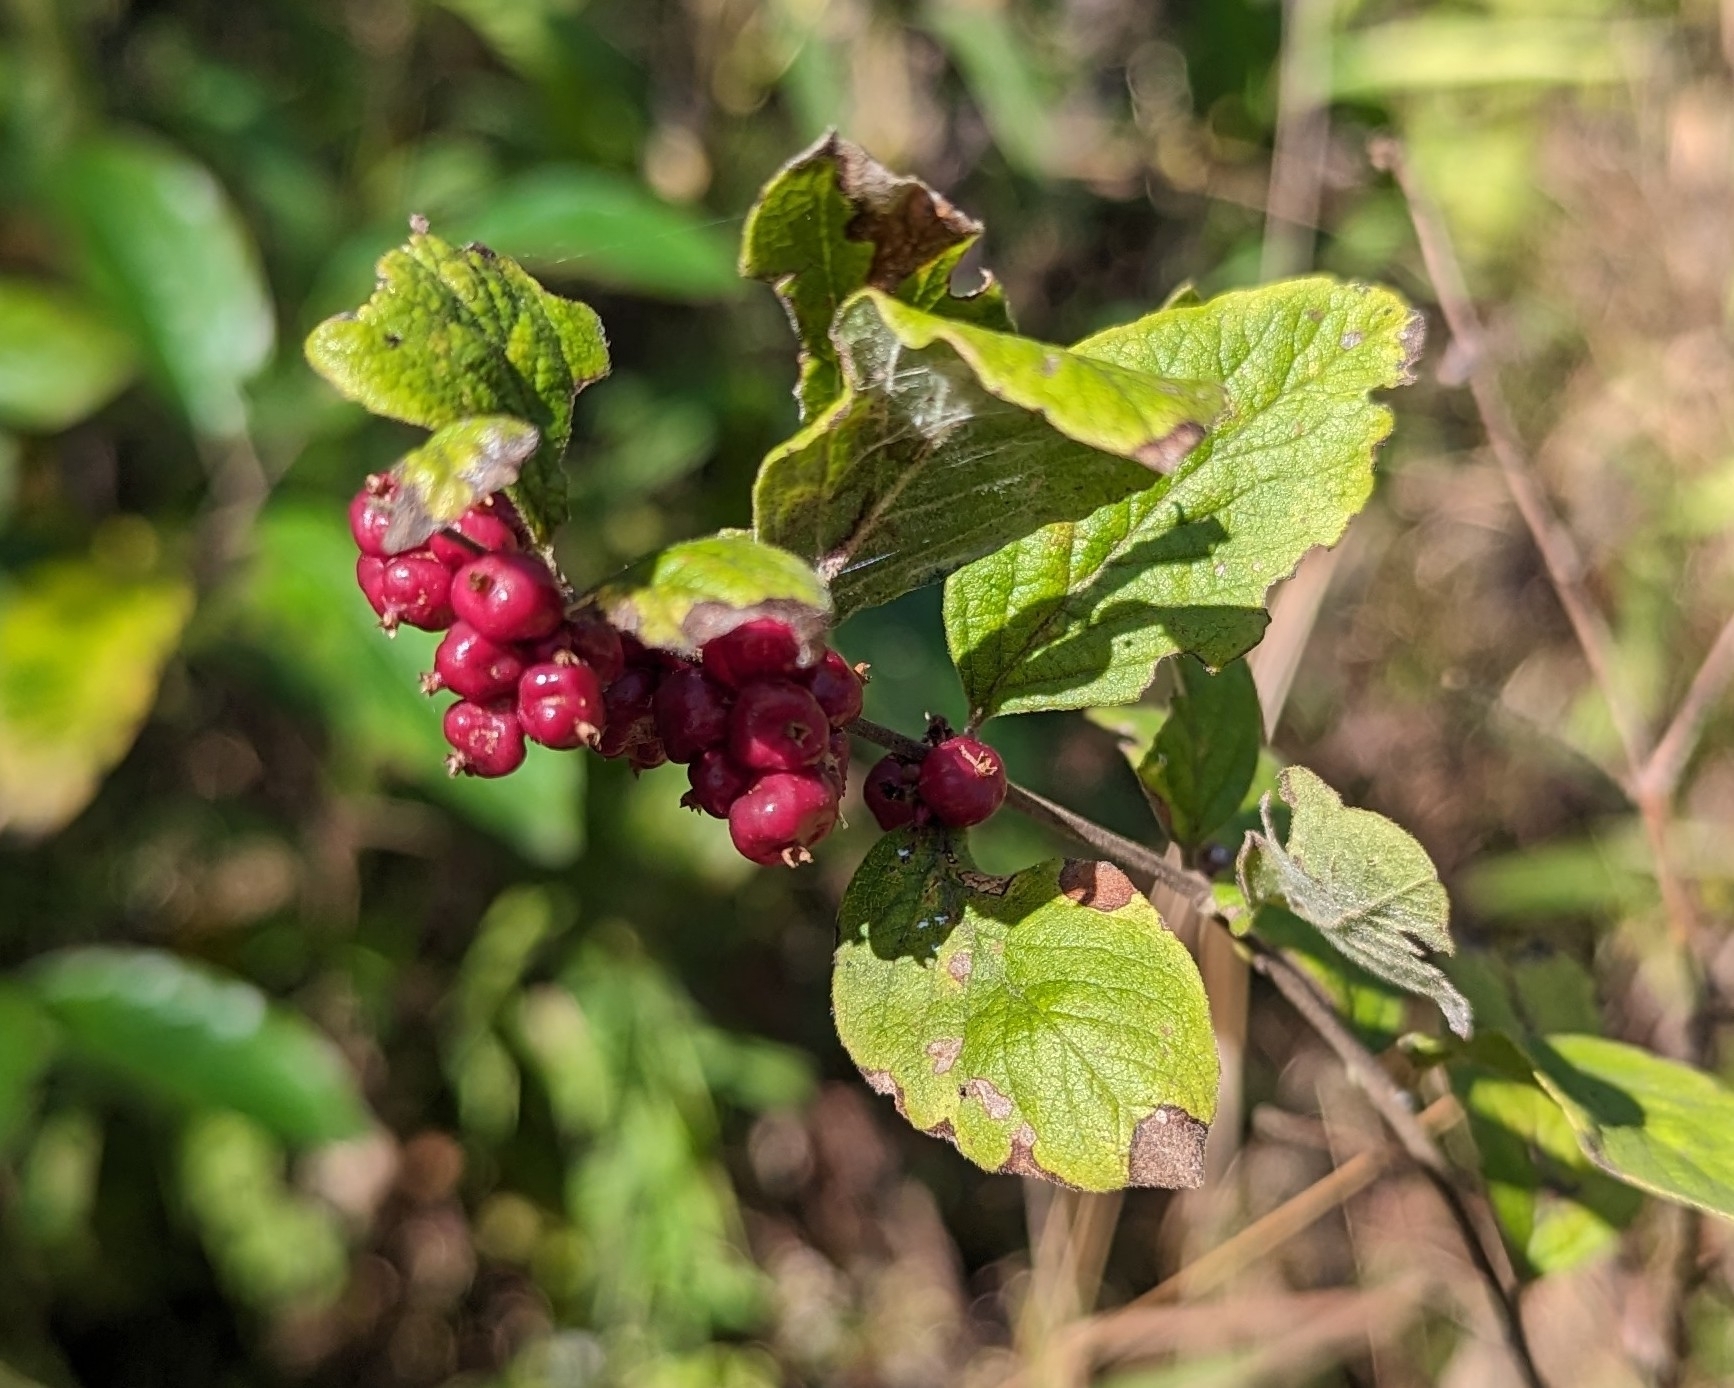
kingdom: Plantae
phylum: Tracheophyta
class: Magnoliopsida
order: Dipsacales
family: Caprifoliaceae
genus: Symphoricarpos
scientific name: Symphoricarpos orbiculatus
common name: Coralberry
